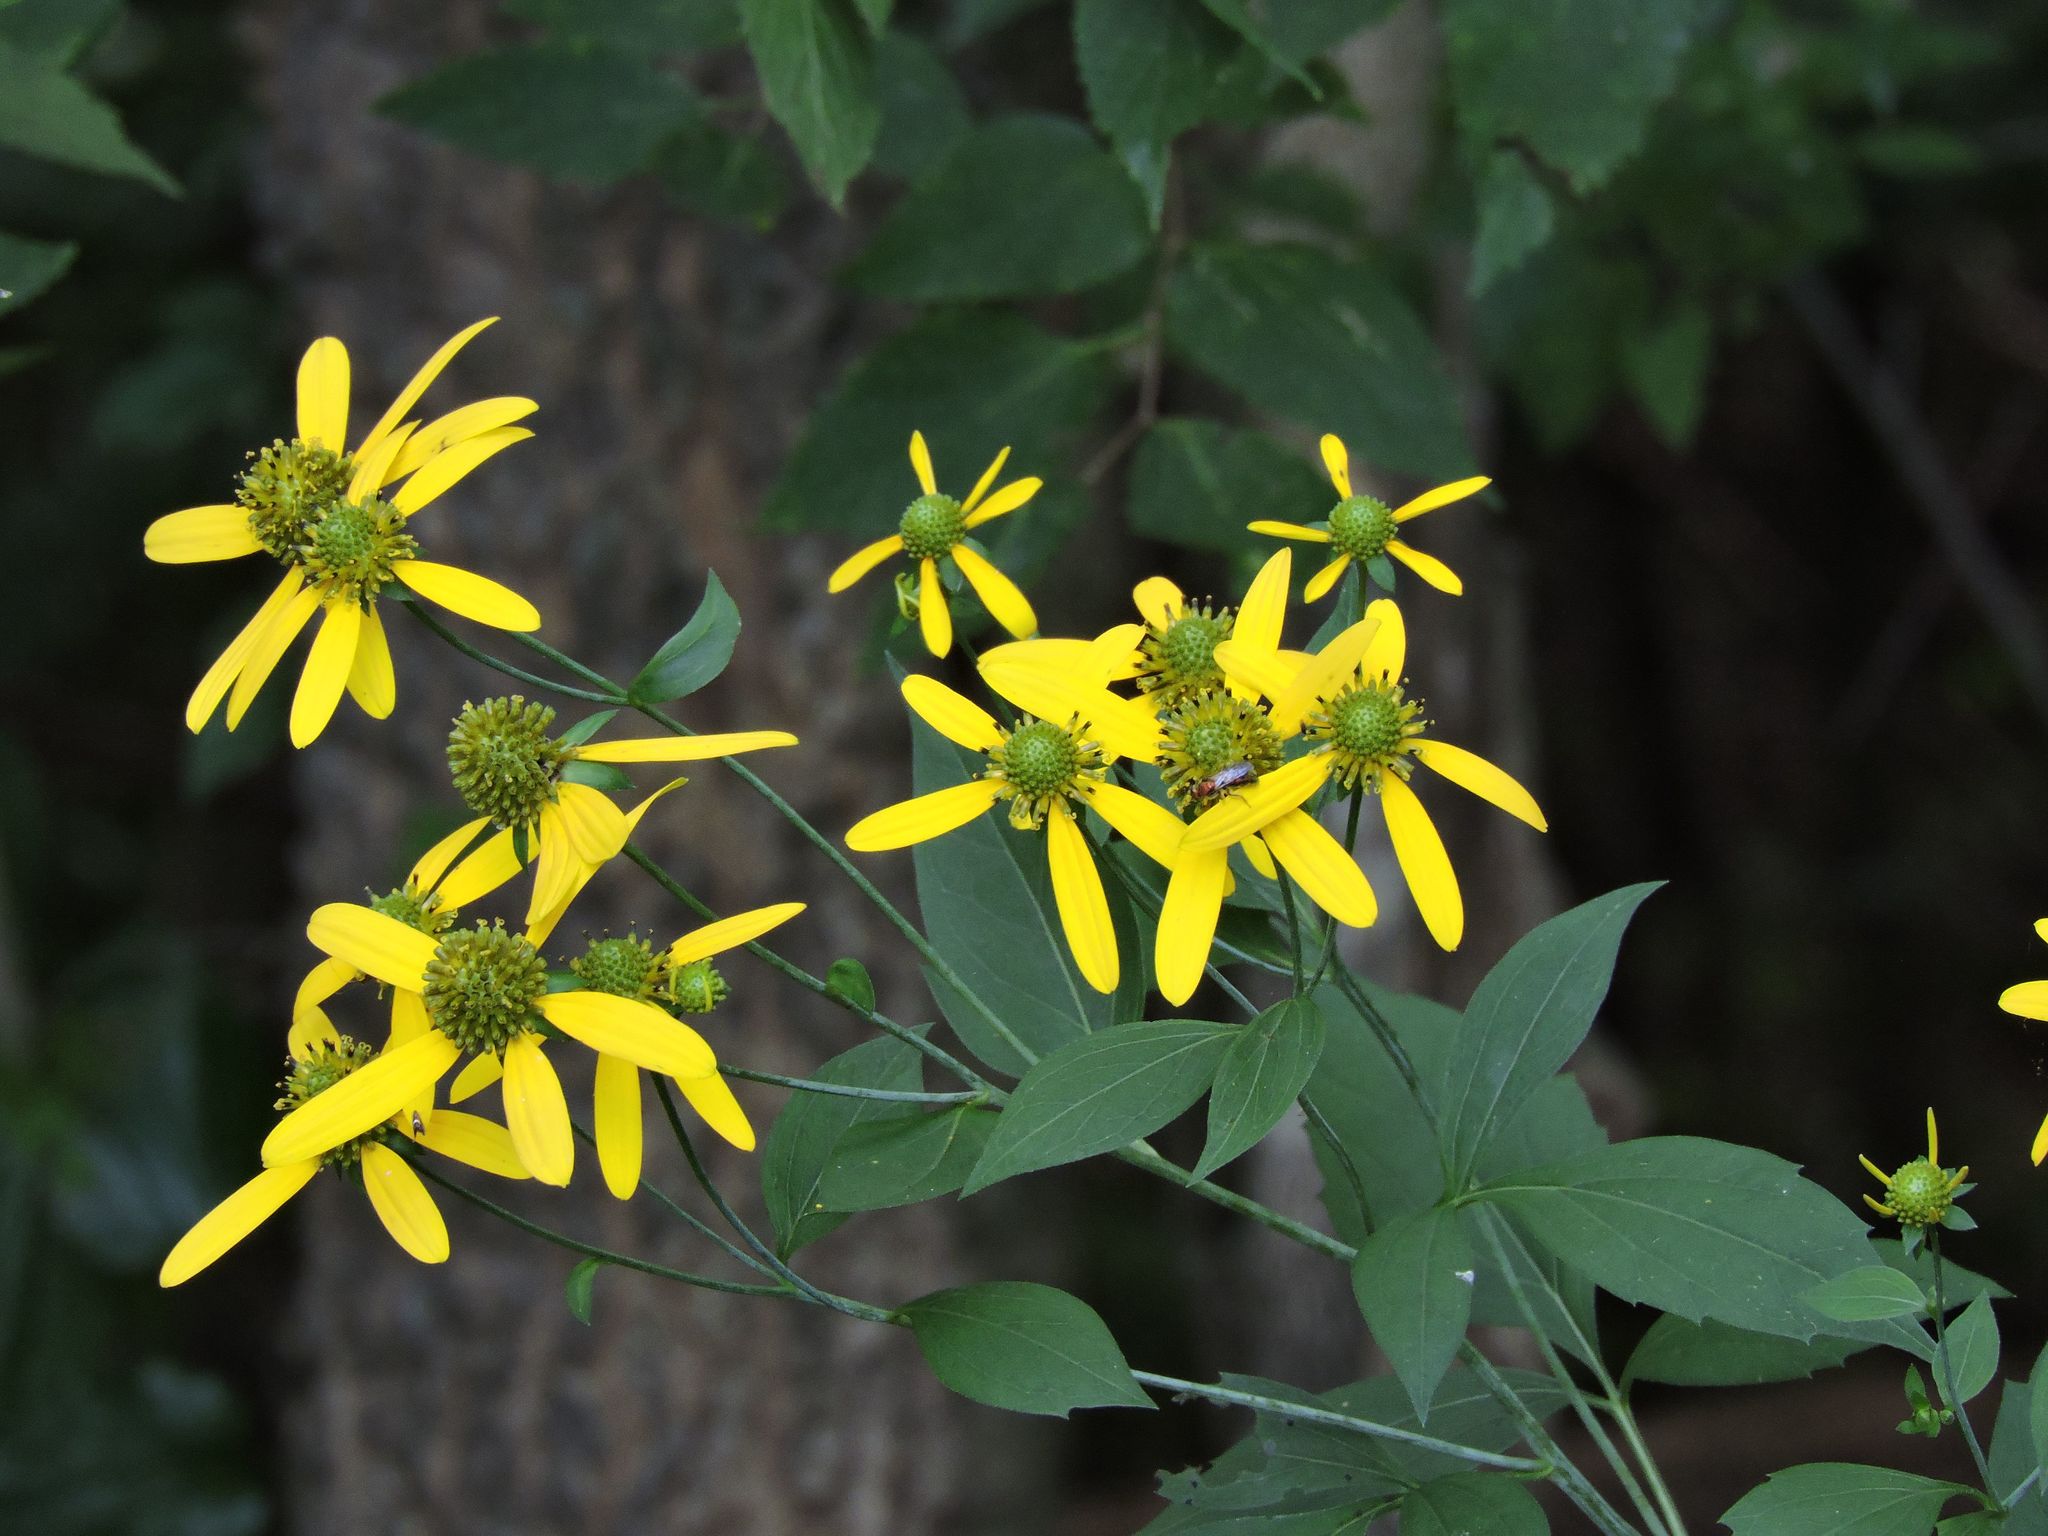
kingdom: Plantae
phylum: Tracheophyta
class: Magnoliopsida
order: Asterales
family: Asteraceae
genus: Rudbeckia
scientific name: Rudbeckia laciniata
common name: Coneflower
